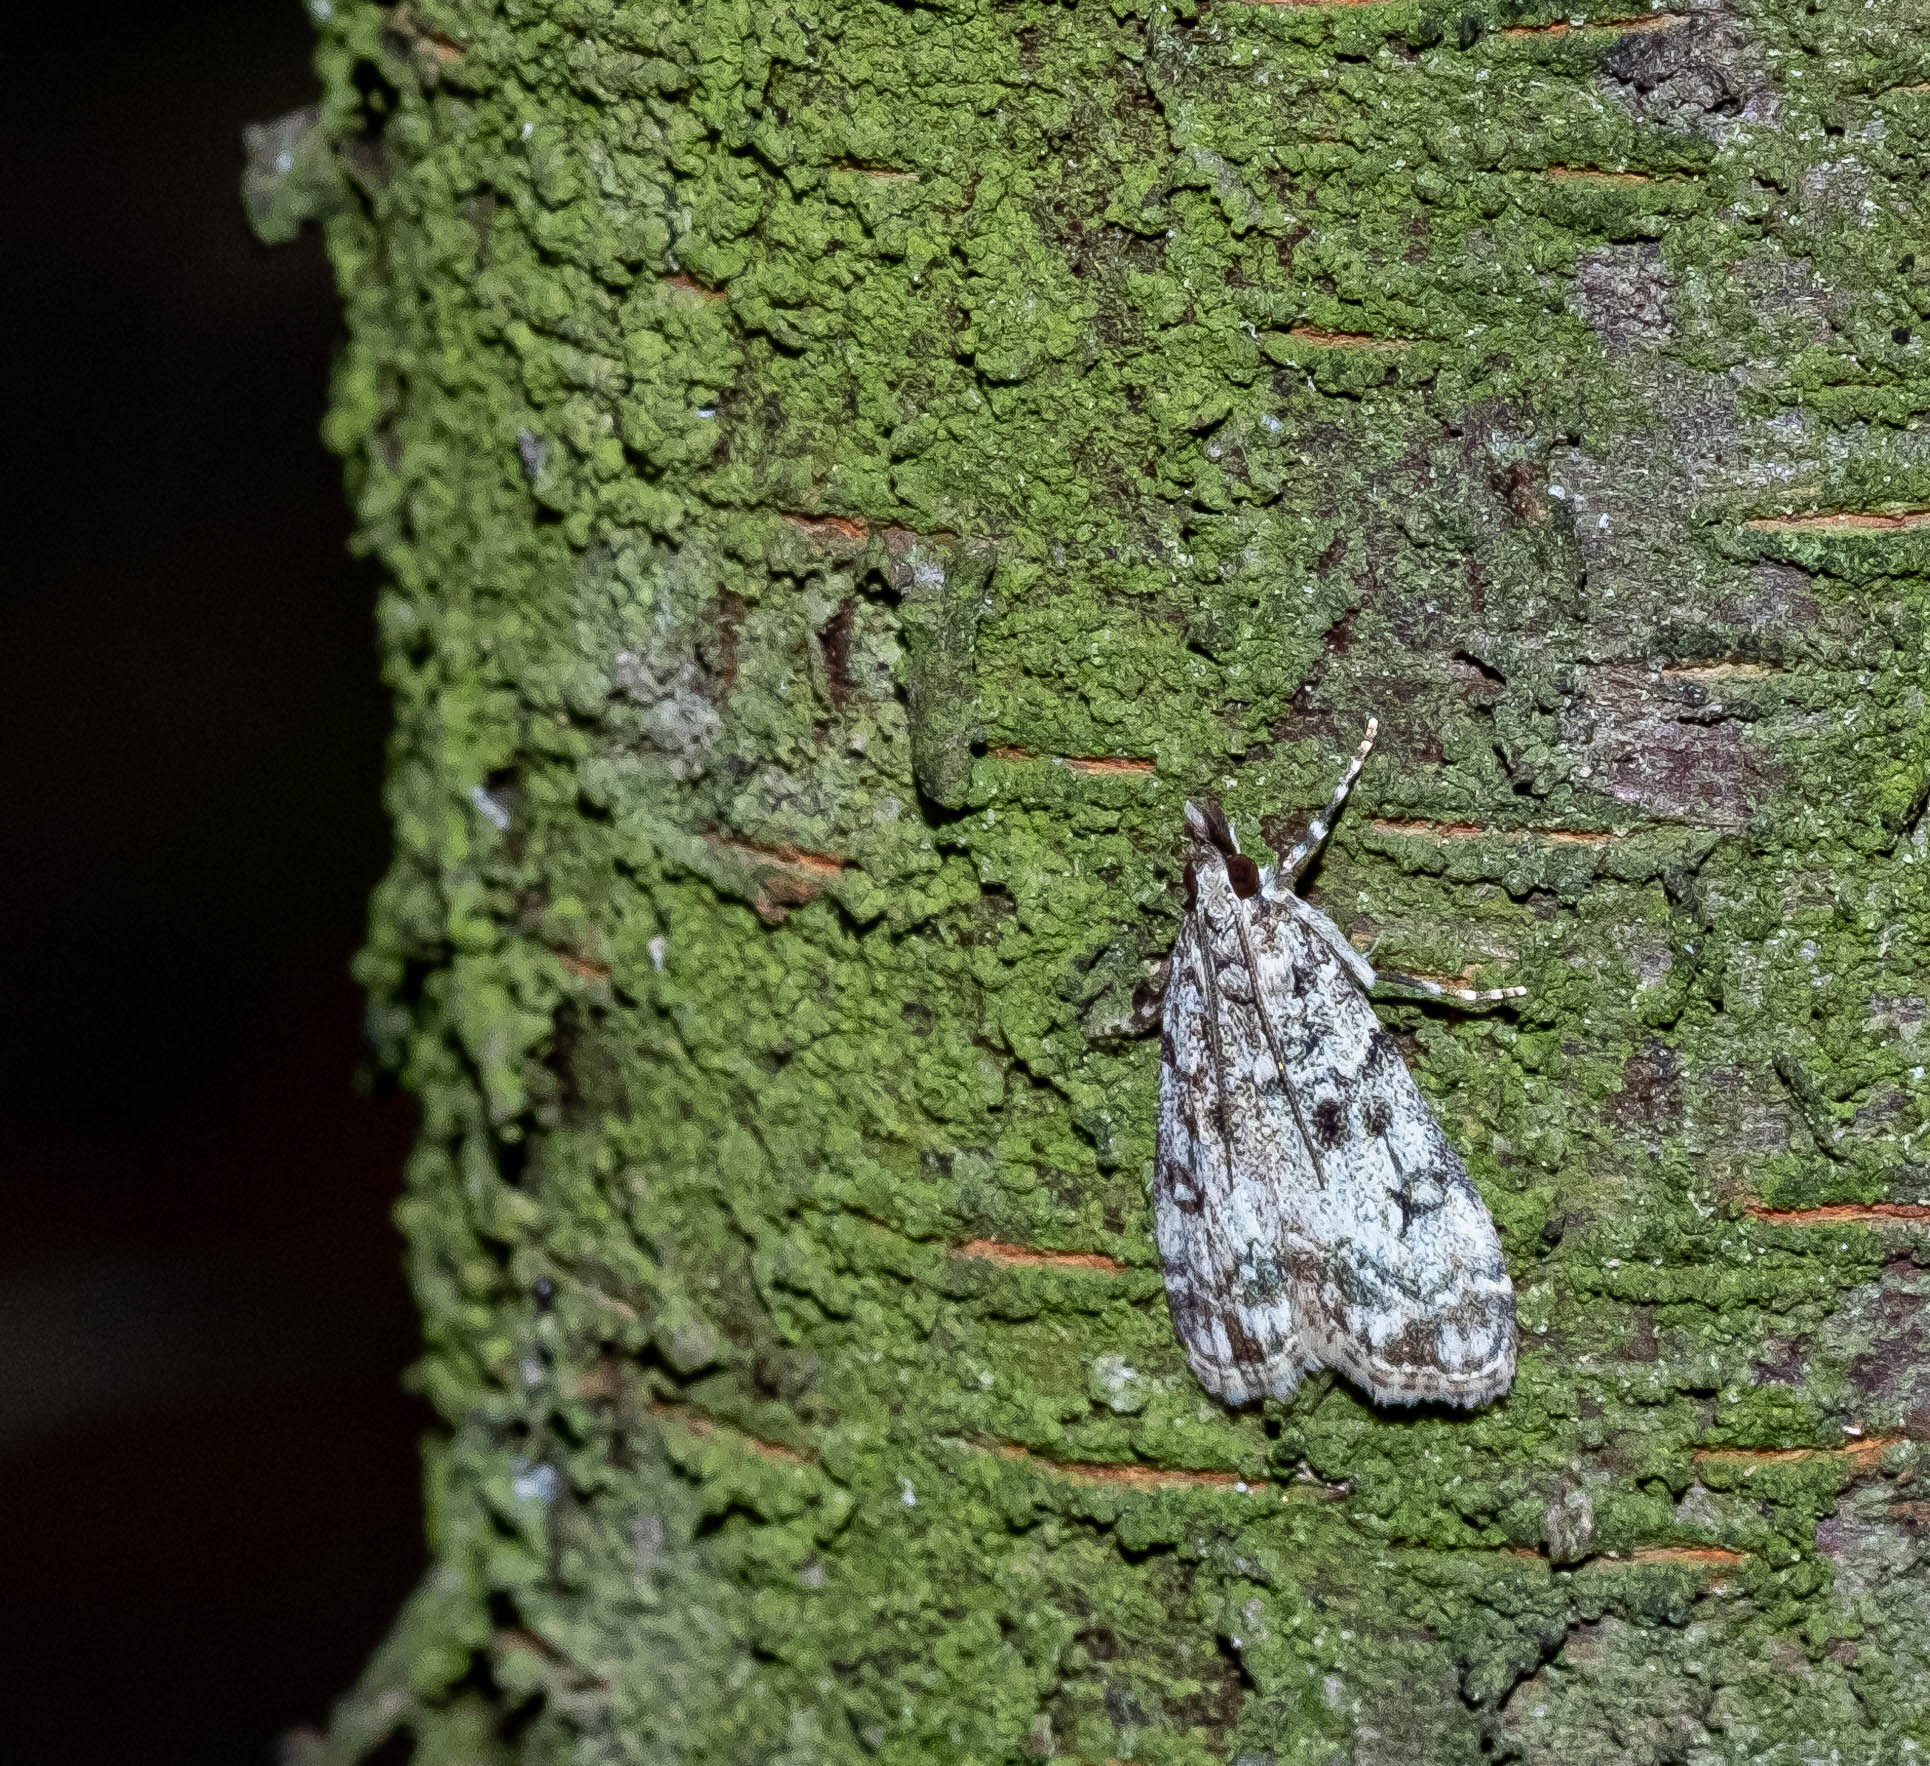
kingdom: Animalia
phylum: Arthropoda
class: Insecta
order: Lepidoptera
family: Crambidae
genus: Eudonia
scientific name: Eudonia lacustrata
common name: Little grey
